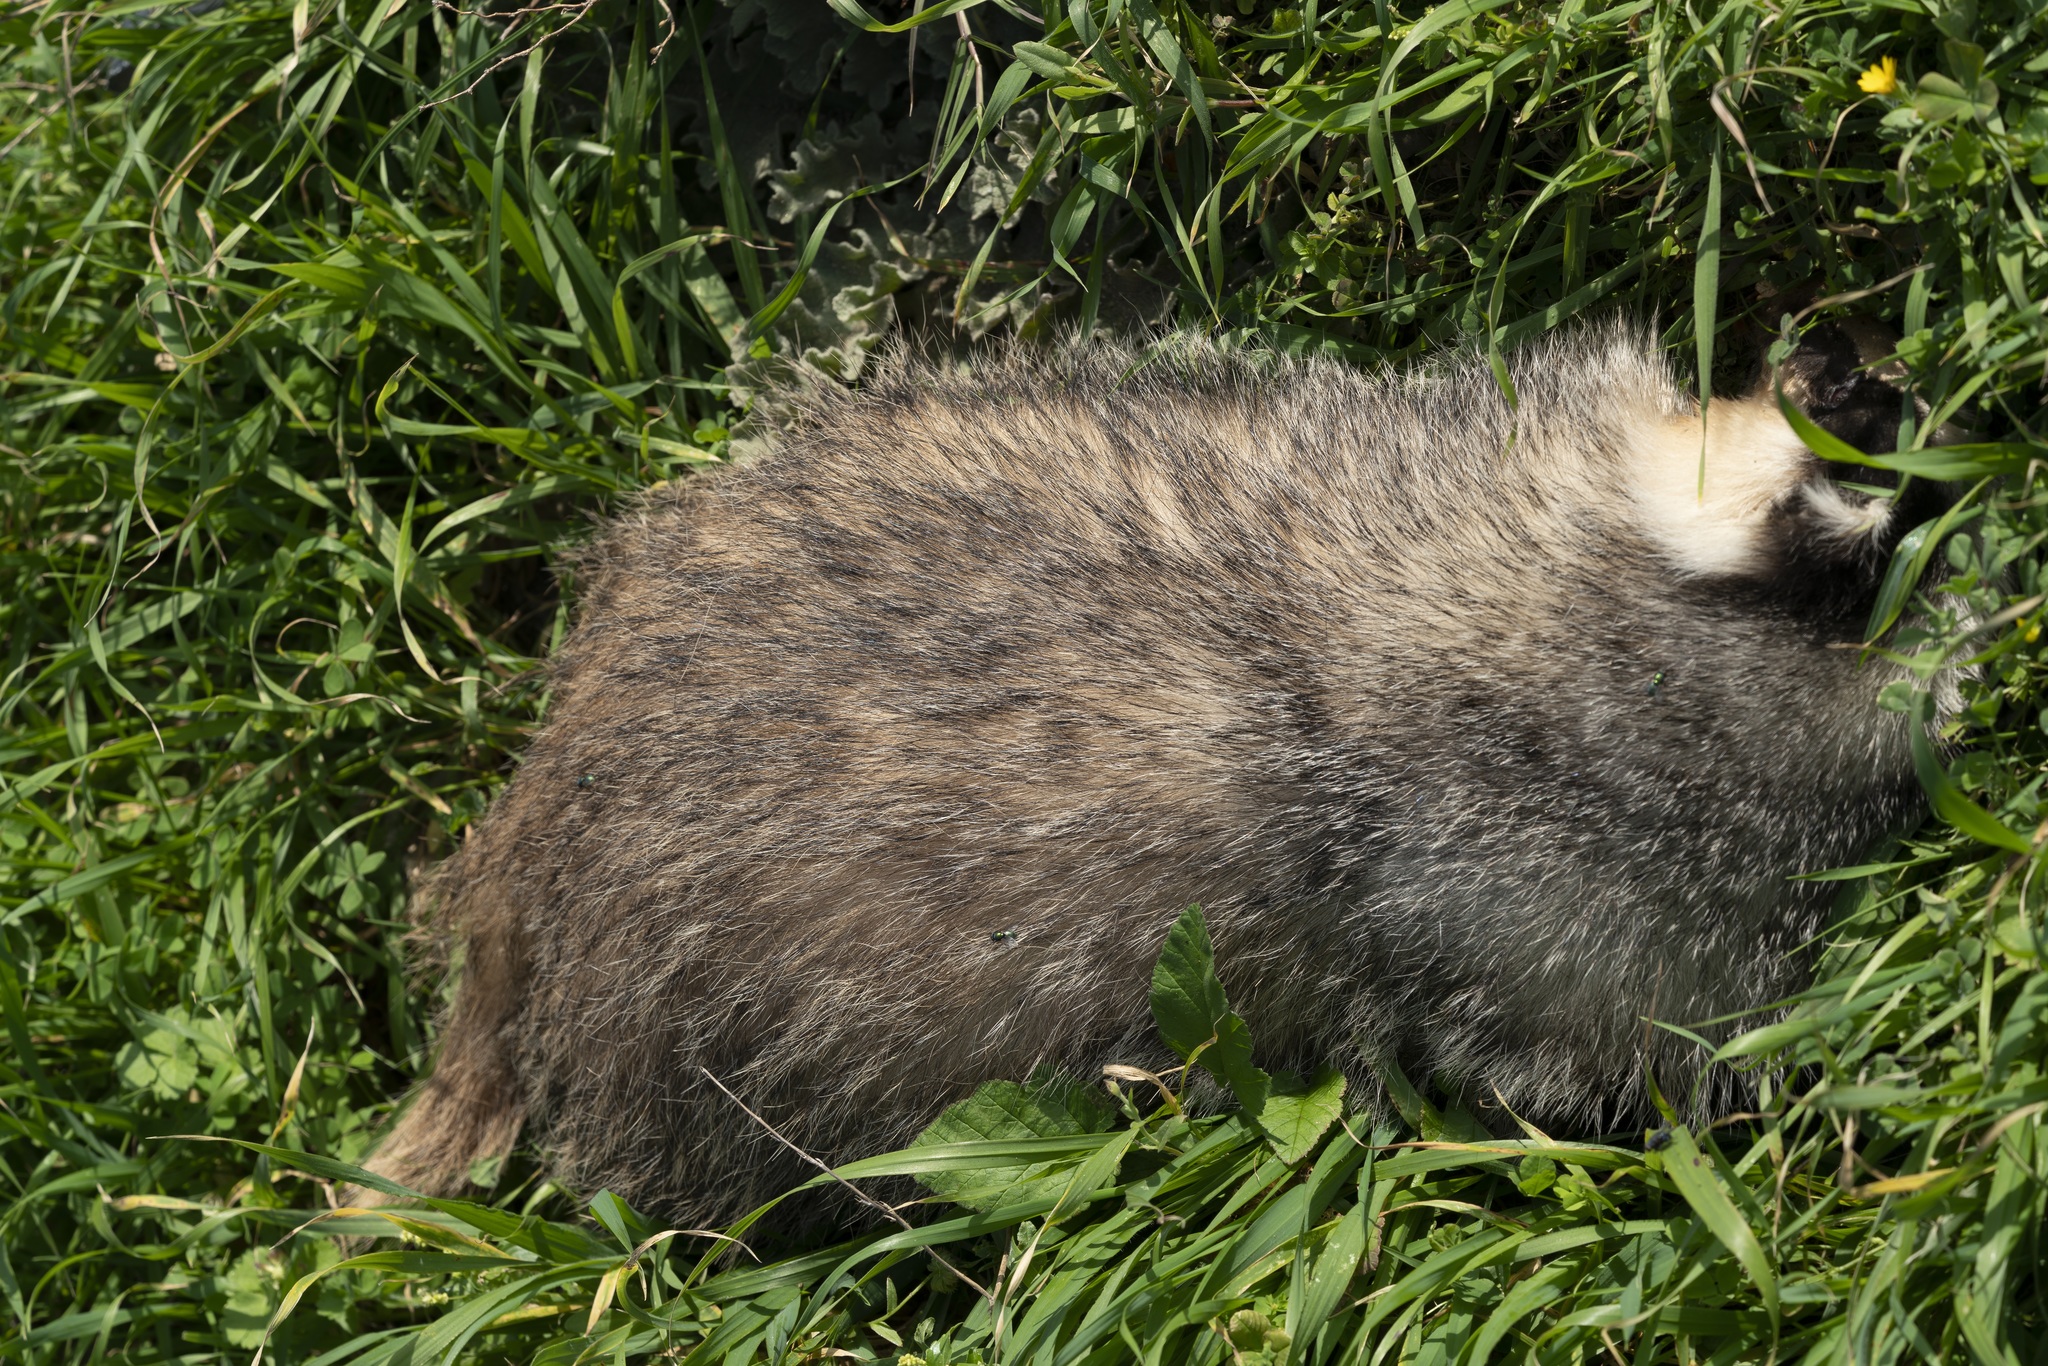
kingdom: Animalia
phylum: Chordata
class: Mammalia
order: Carnivora
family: Mustelidae
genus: Meles
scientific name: Meles canescens
